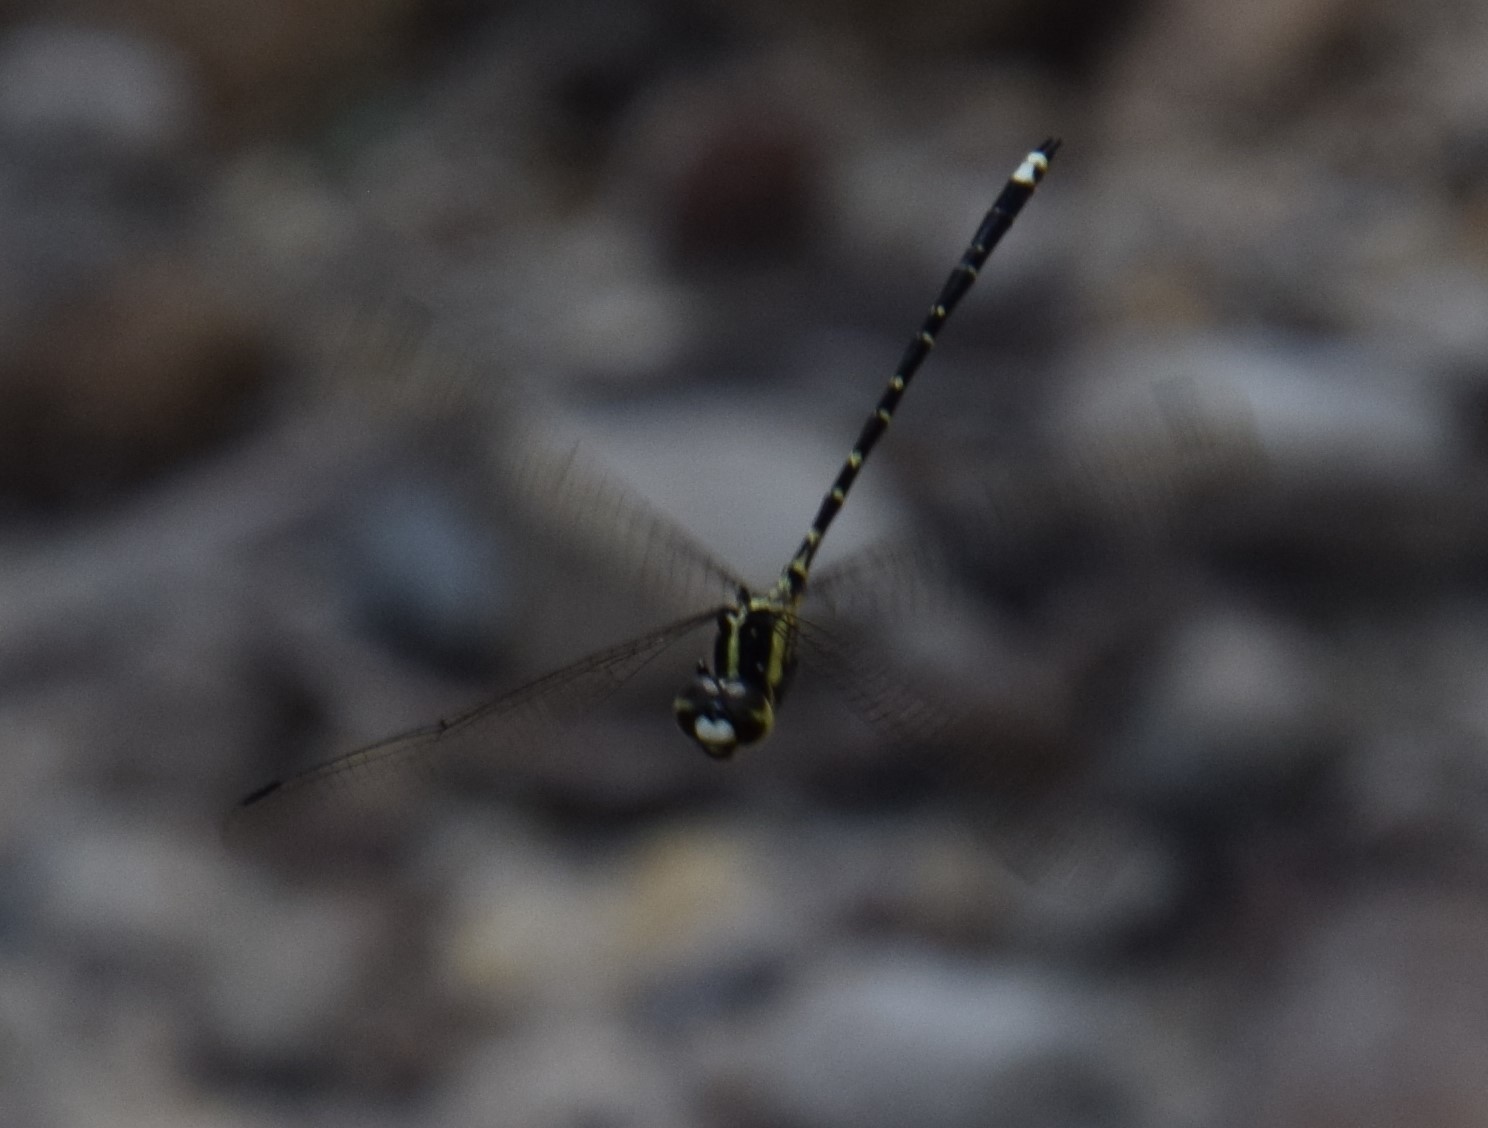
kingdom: Animalia
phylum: Arthropoda
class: Insecta
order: Odonata
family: Synthemistidae
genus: Choristhemis
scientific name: Choristhemis flavoterminata
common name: Yellow-tipped tigertail
